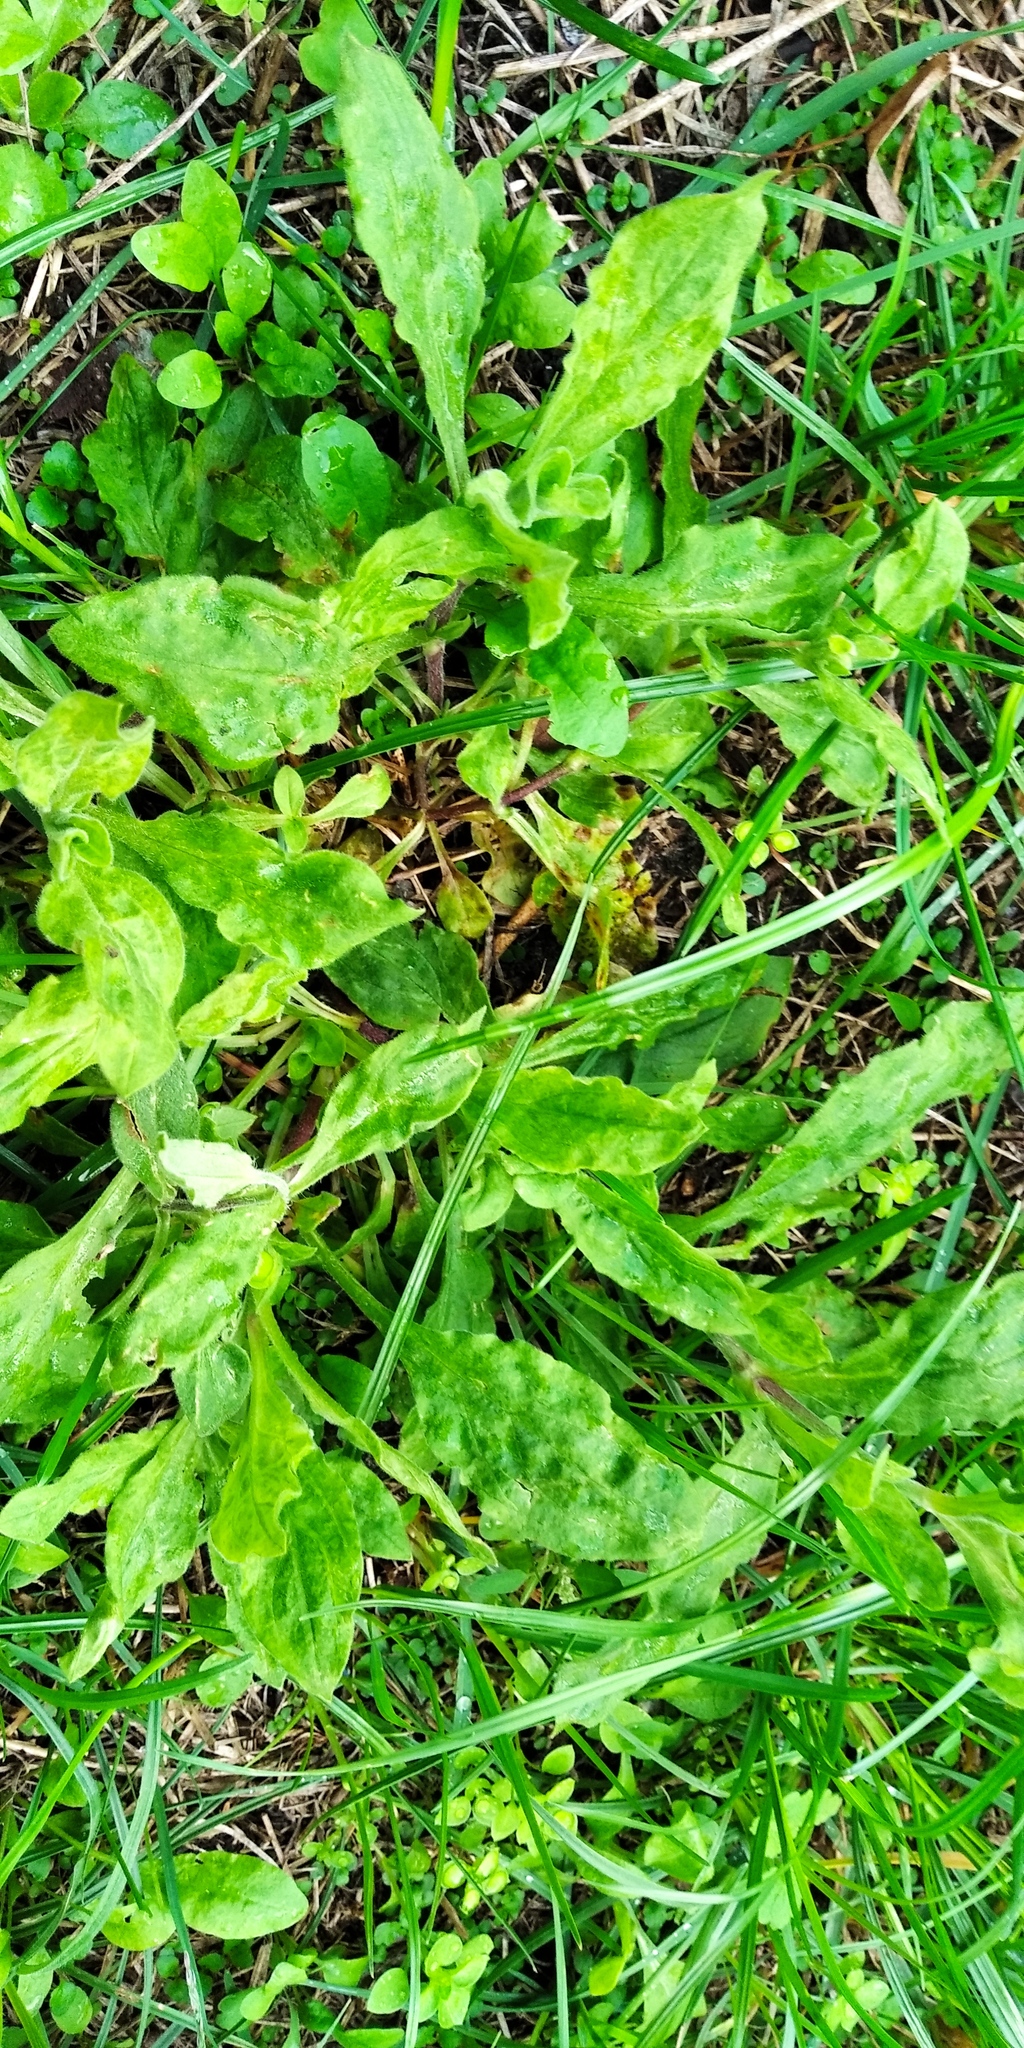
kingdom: Plantae
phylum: Tracheophyta
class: Magnoliopsida
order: Asterales
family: Asteraceae
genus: Erigeron
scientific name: Erigeron annuus
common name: Tall fleabane
